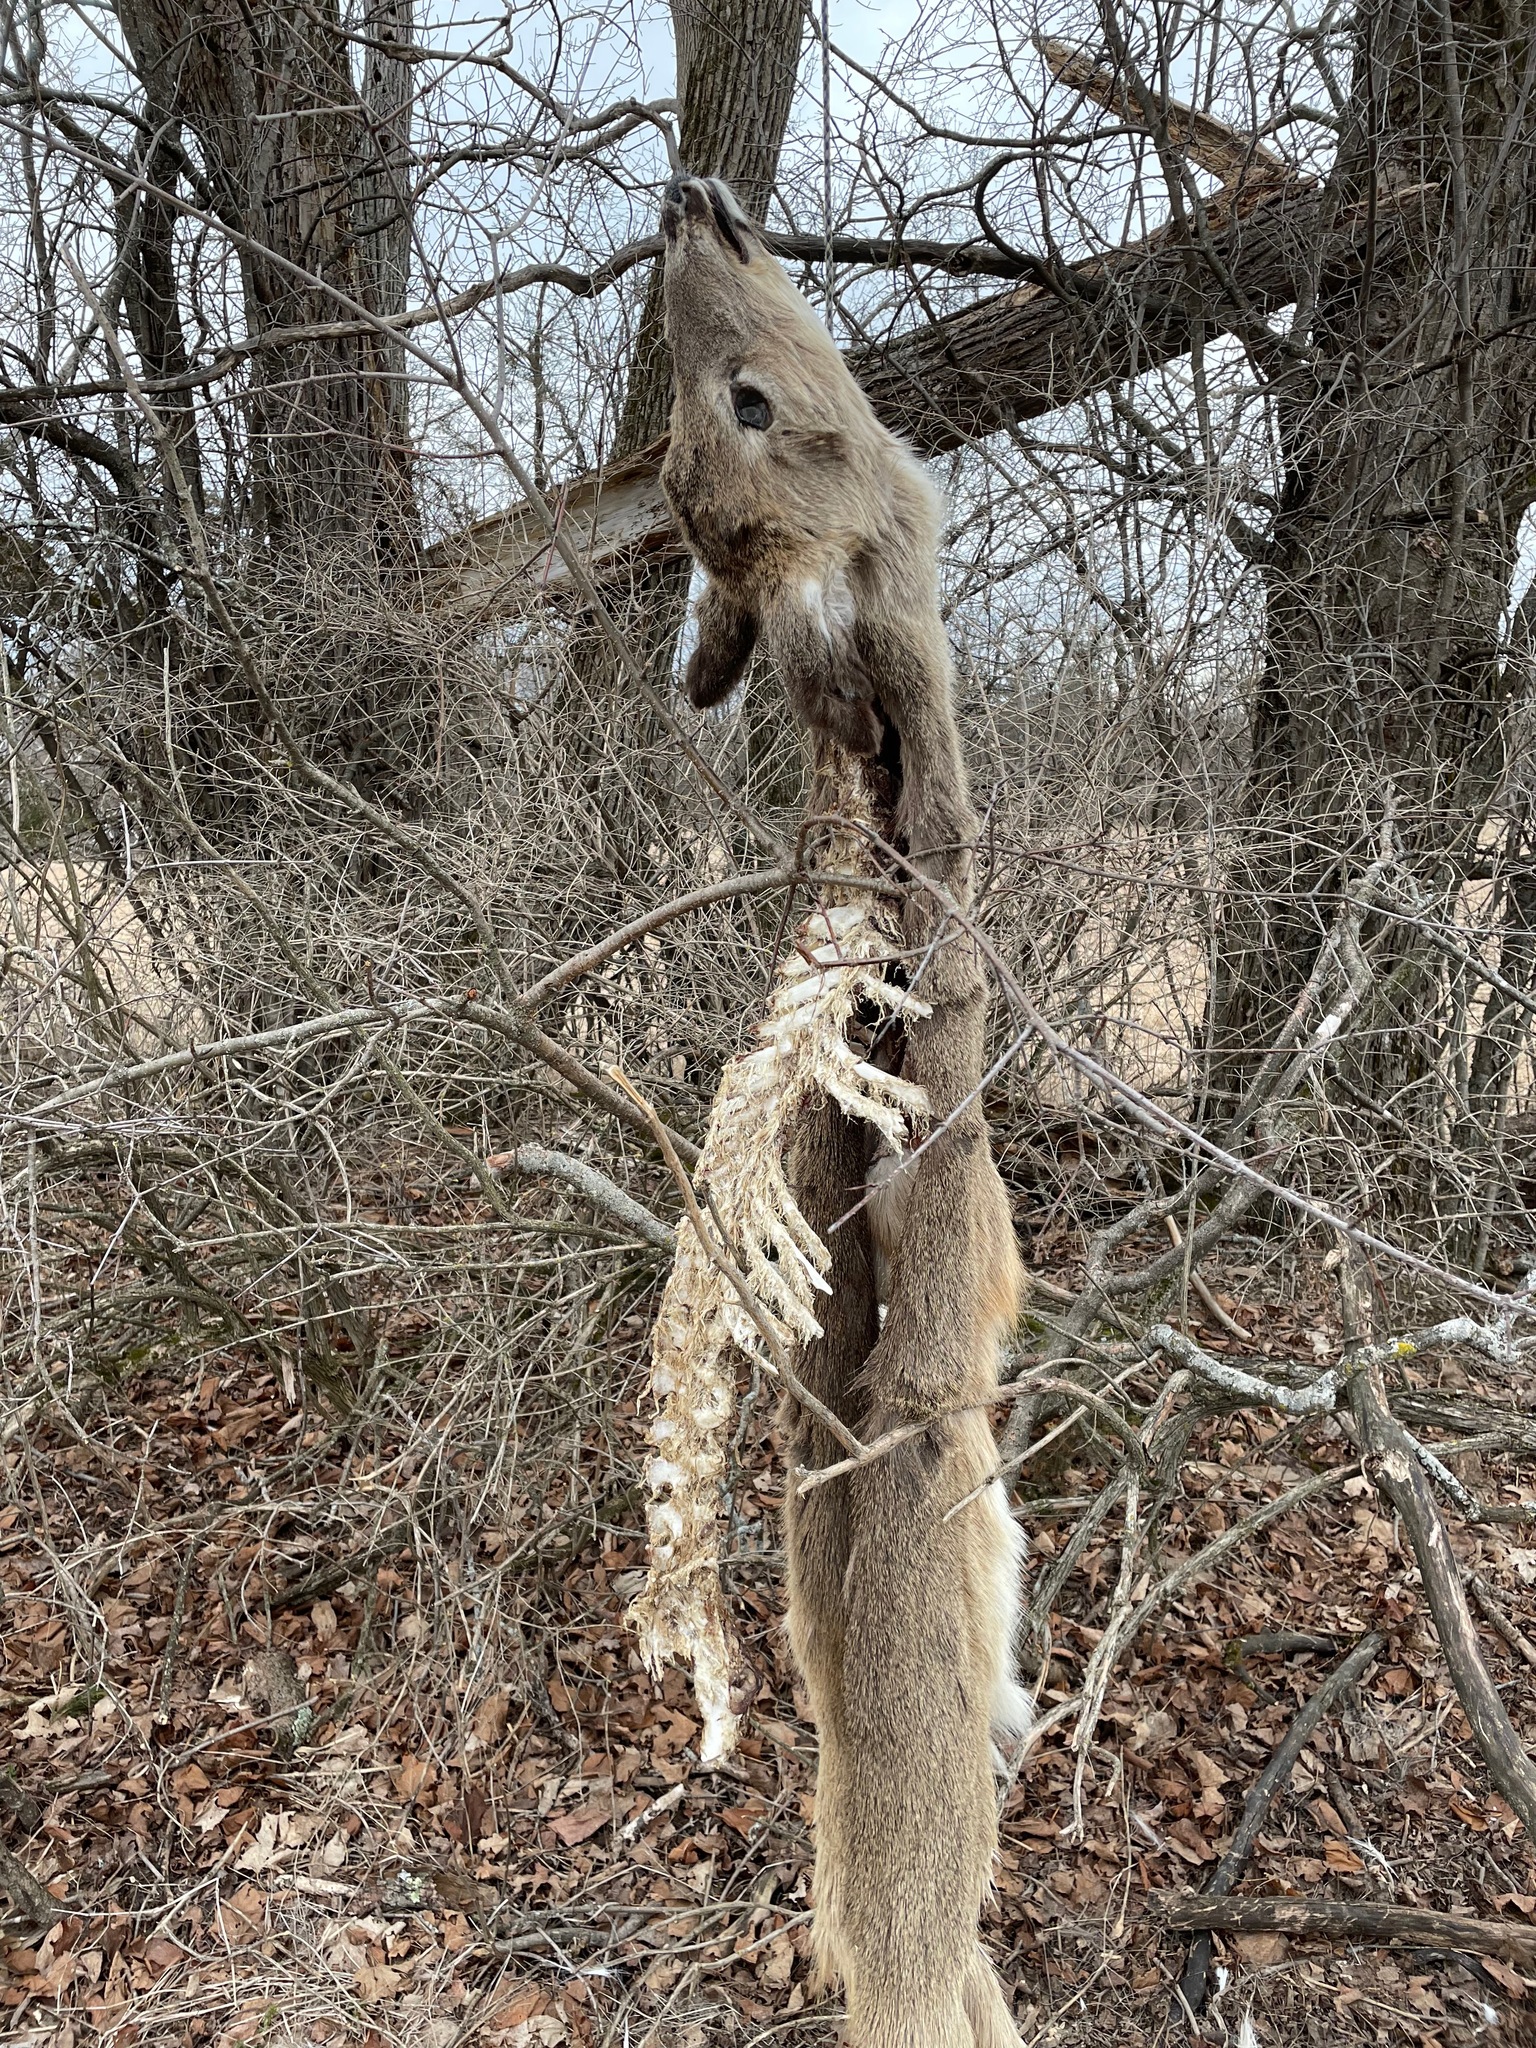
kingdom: Animalia
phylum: Chordata
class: Mammalia
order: Artiodactyla
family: Cervidae
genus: Odocoileus
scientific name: Odocoileus virginianus
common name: White-tailed deer
